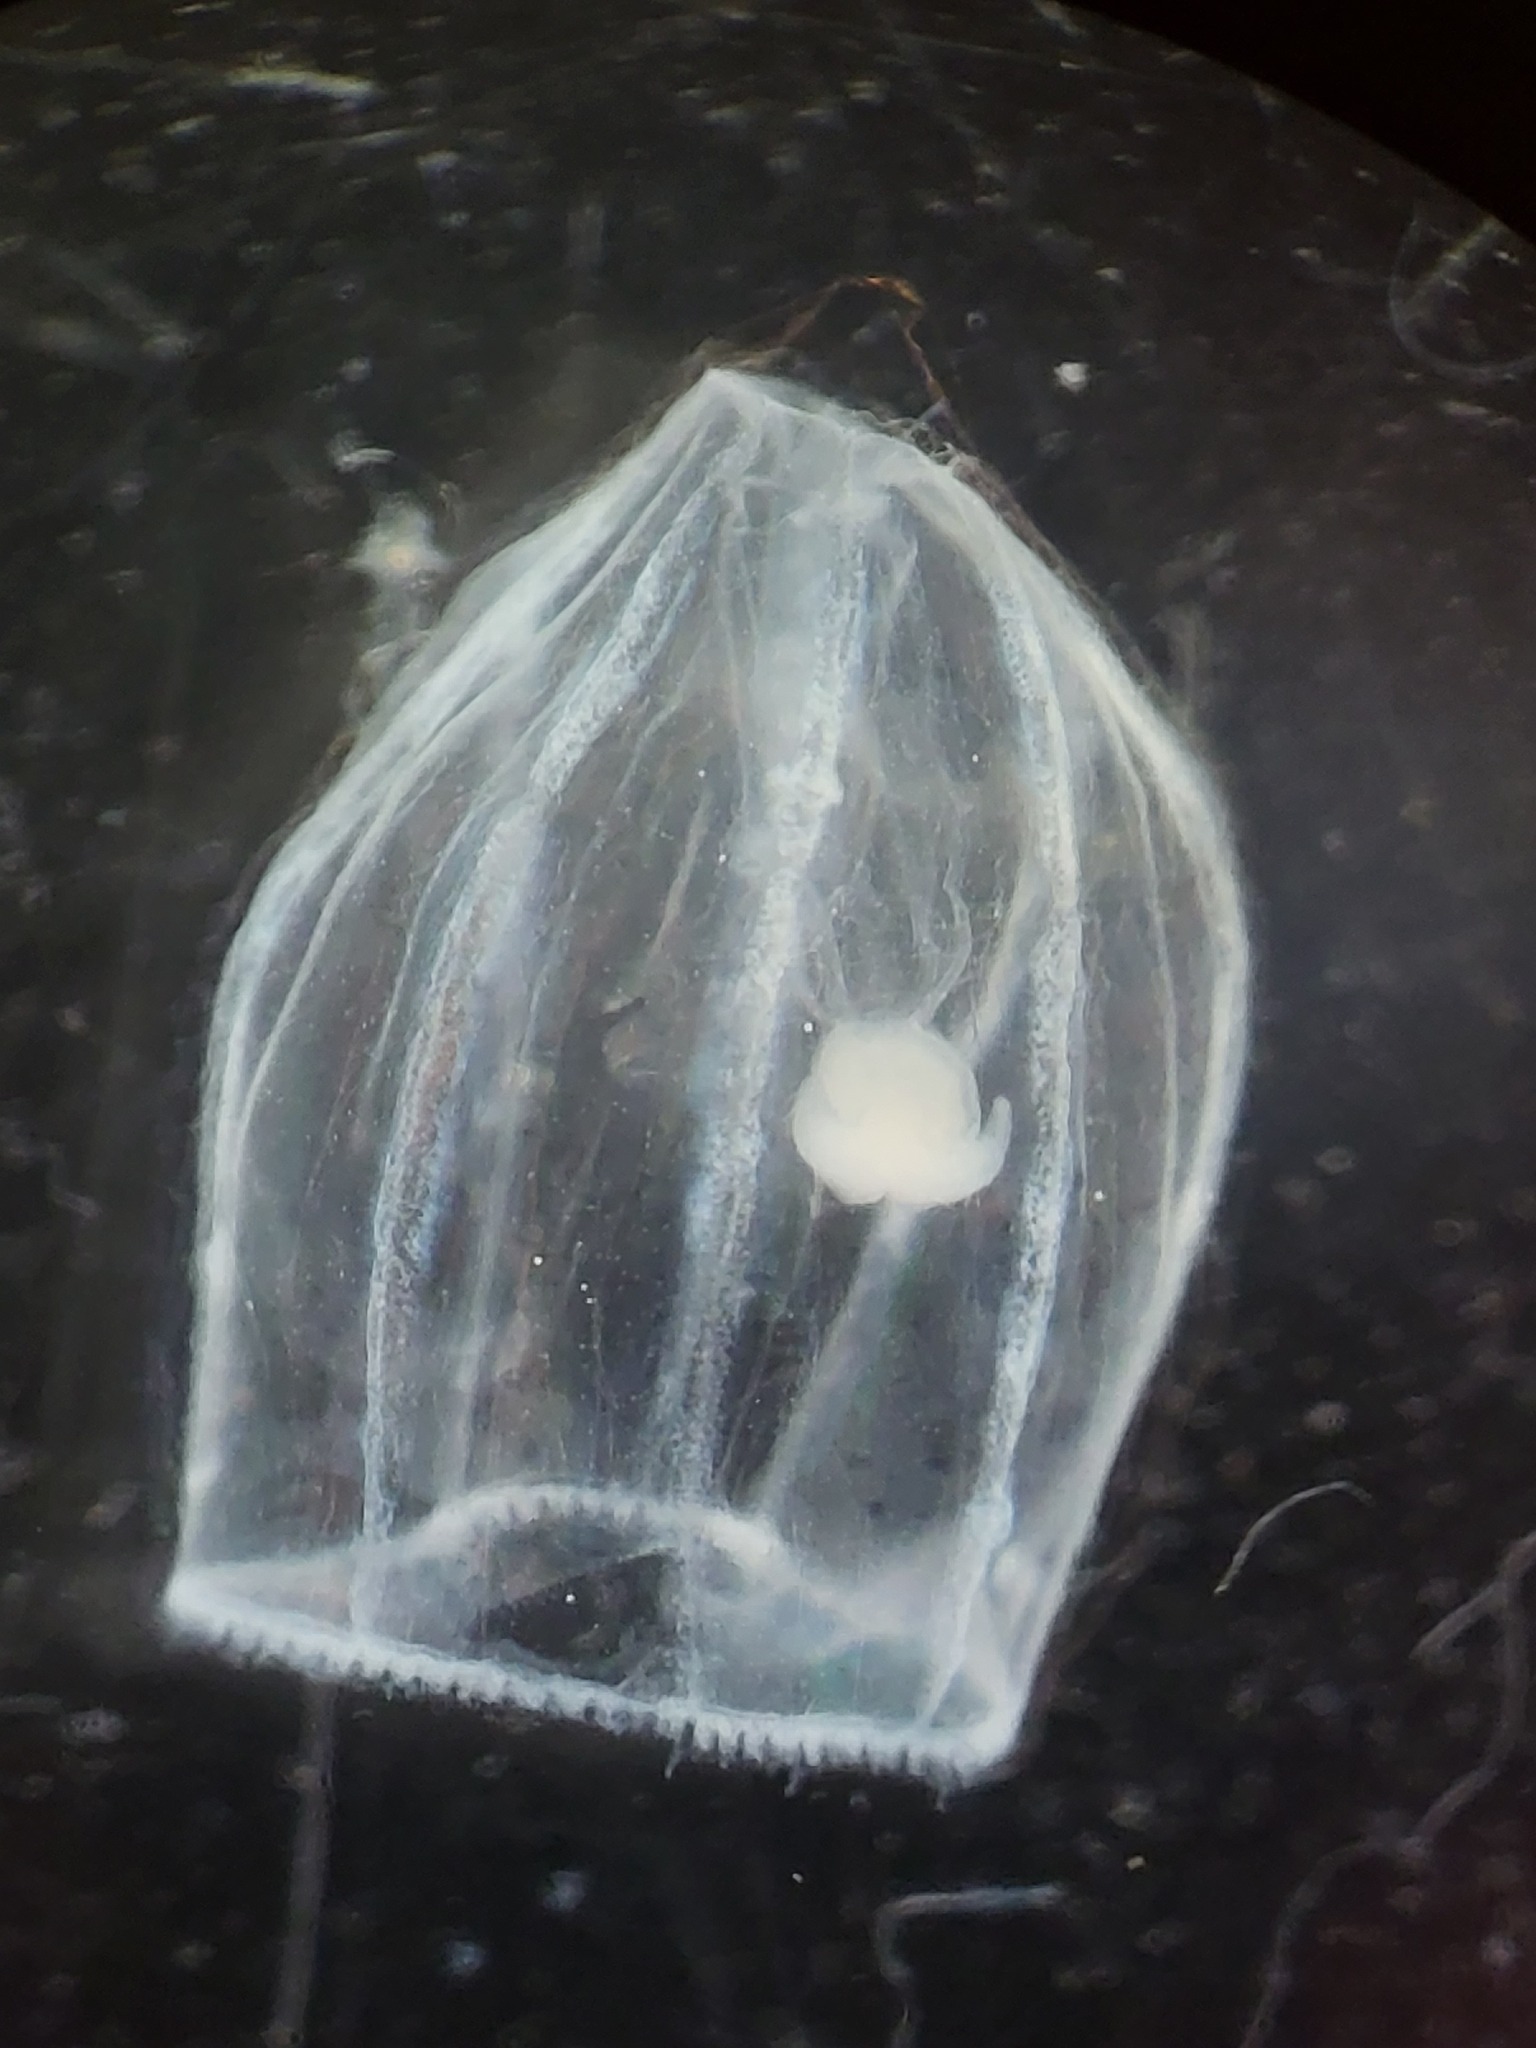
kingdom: Animalia
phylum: Cnidaria
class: Hydrozoa
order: Trachymedusae
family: Rhopalonematidae
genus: Aglantha
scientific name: Aglantha digitale
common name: Pink helmet
